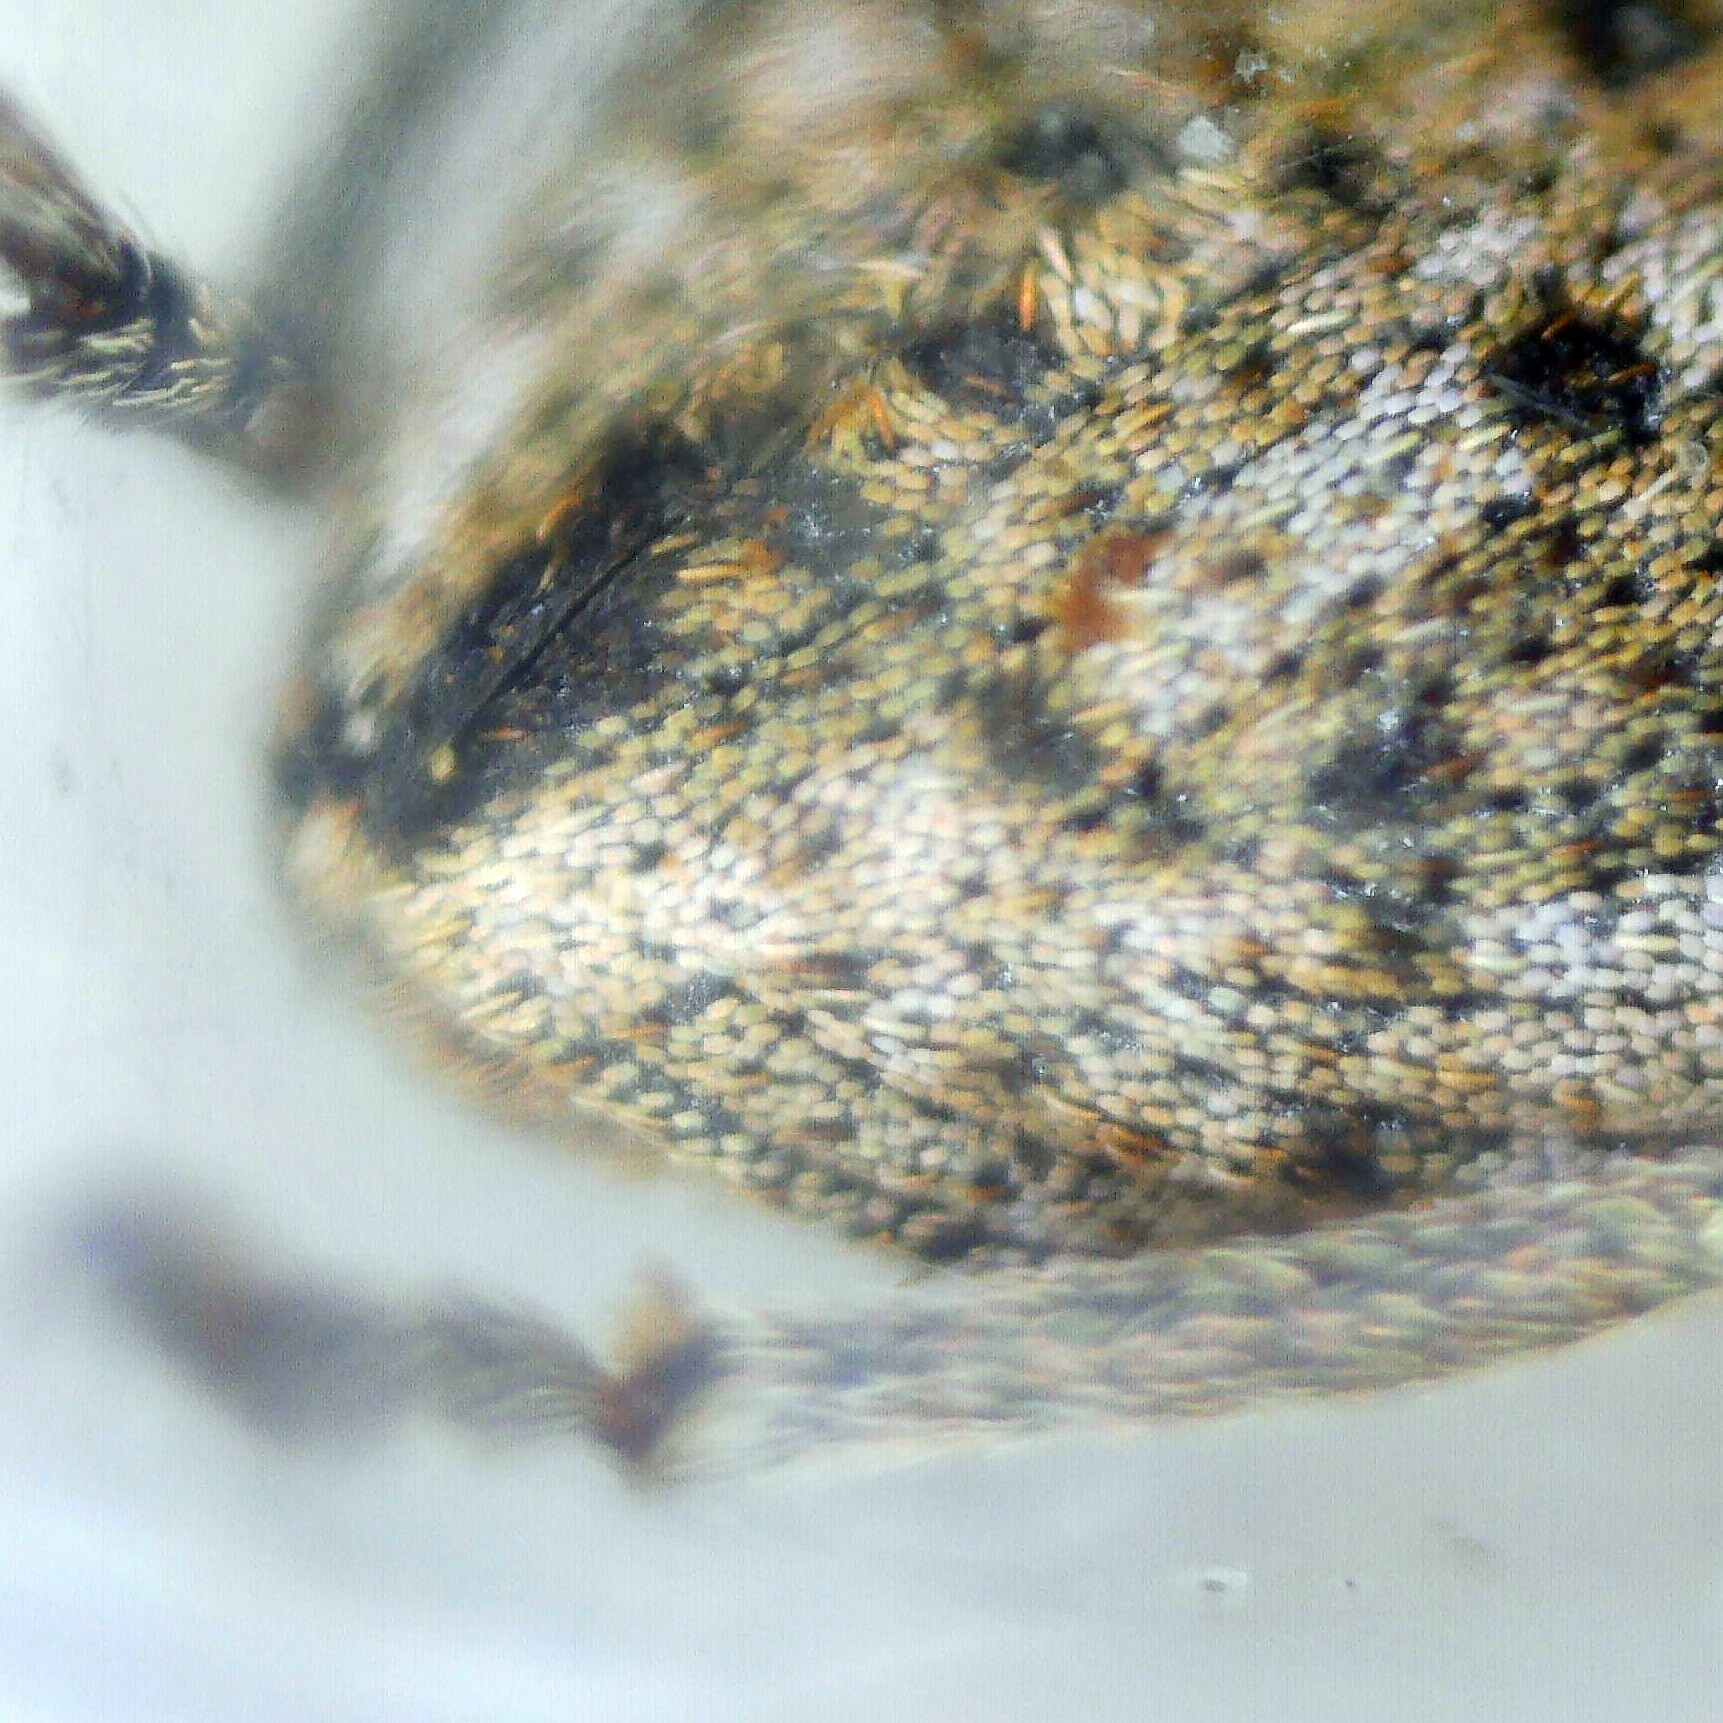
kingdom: Animalia
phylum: Arthropoda
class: Insecta
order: Coleoptera
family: Curculionidae
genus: Hypera
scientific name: Hypera conmaculata
